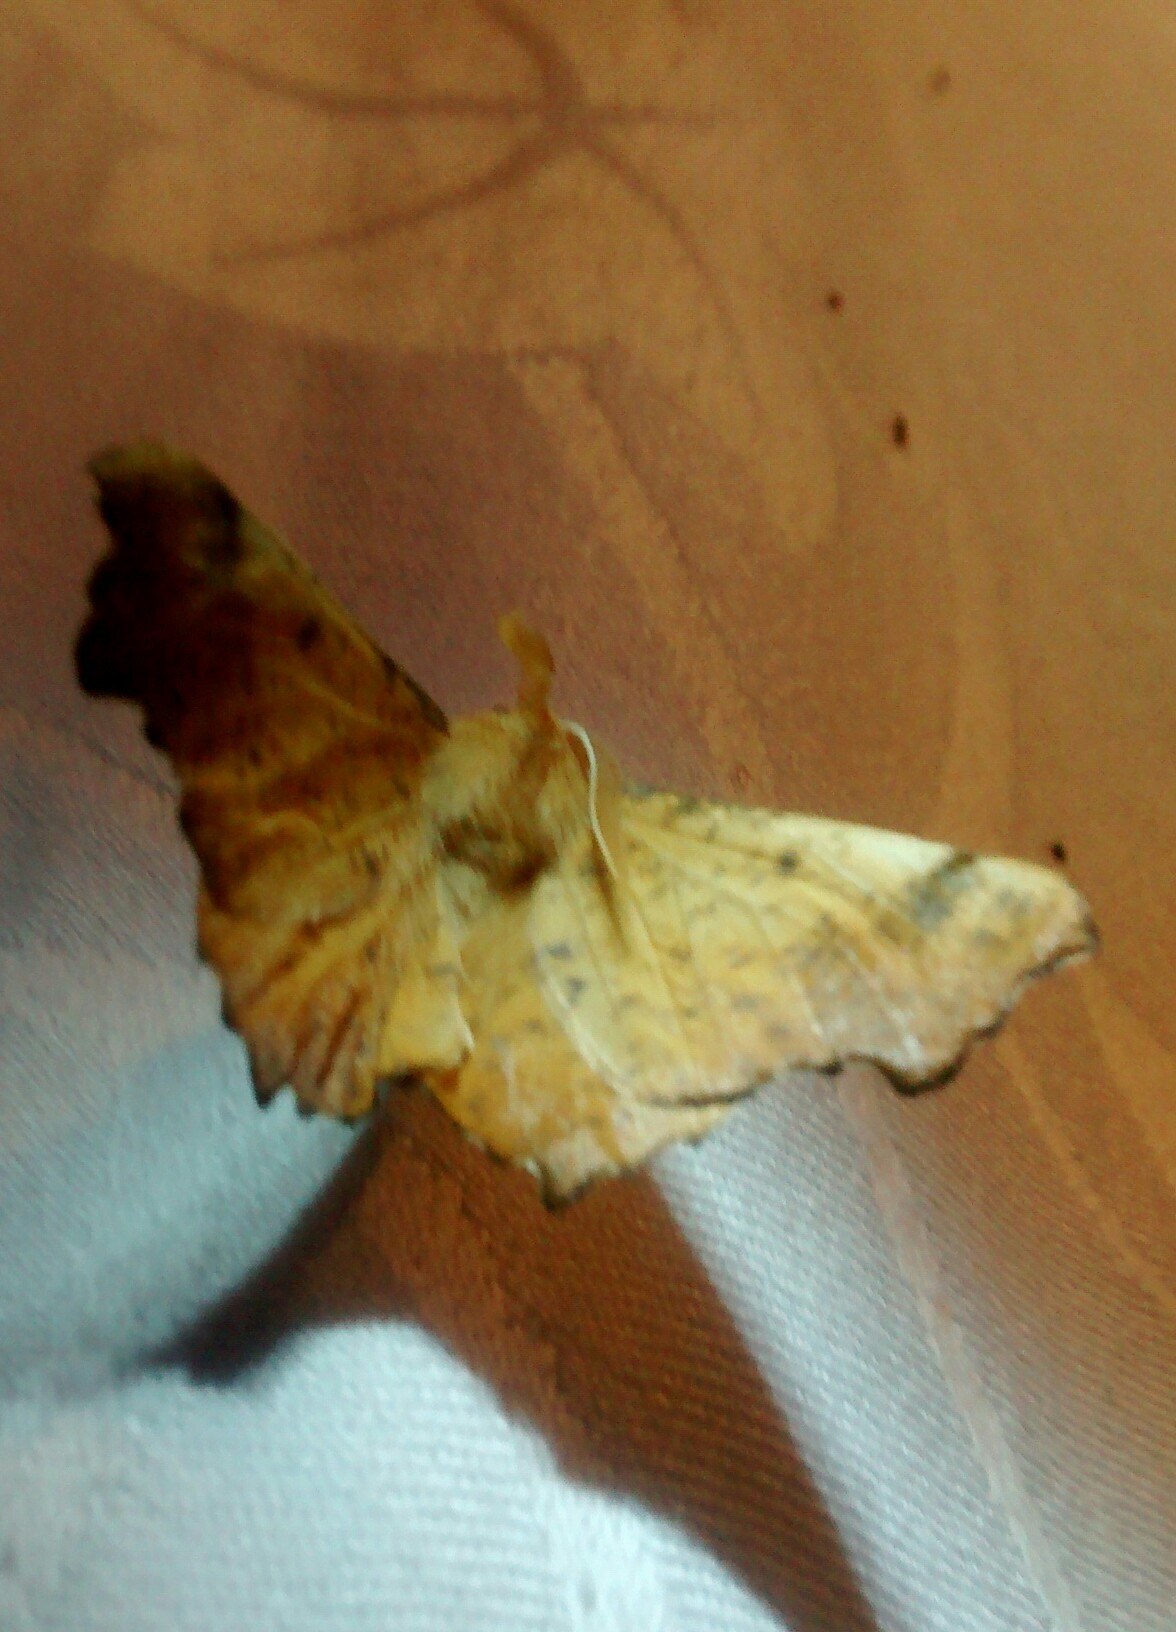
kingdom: Animalia
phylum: Arthropoda
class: Insecta
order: Lepidoptera
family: Geometridae
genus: Ennomos
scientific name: Ennomos magnaria
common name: Maple spanworm
